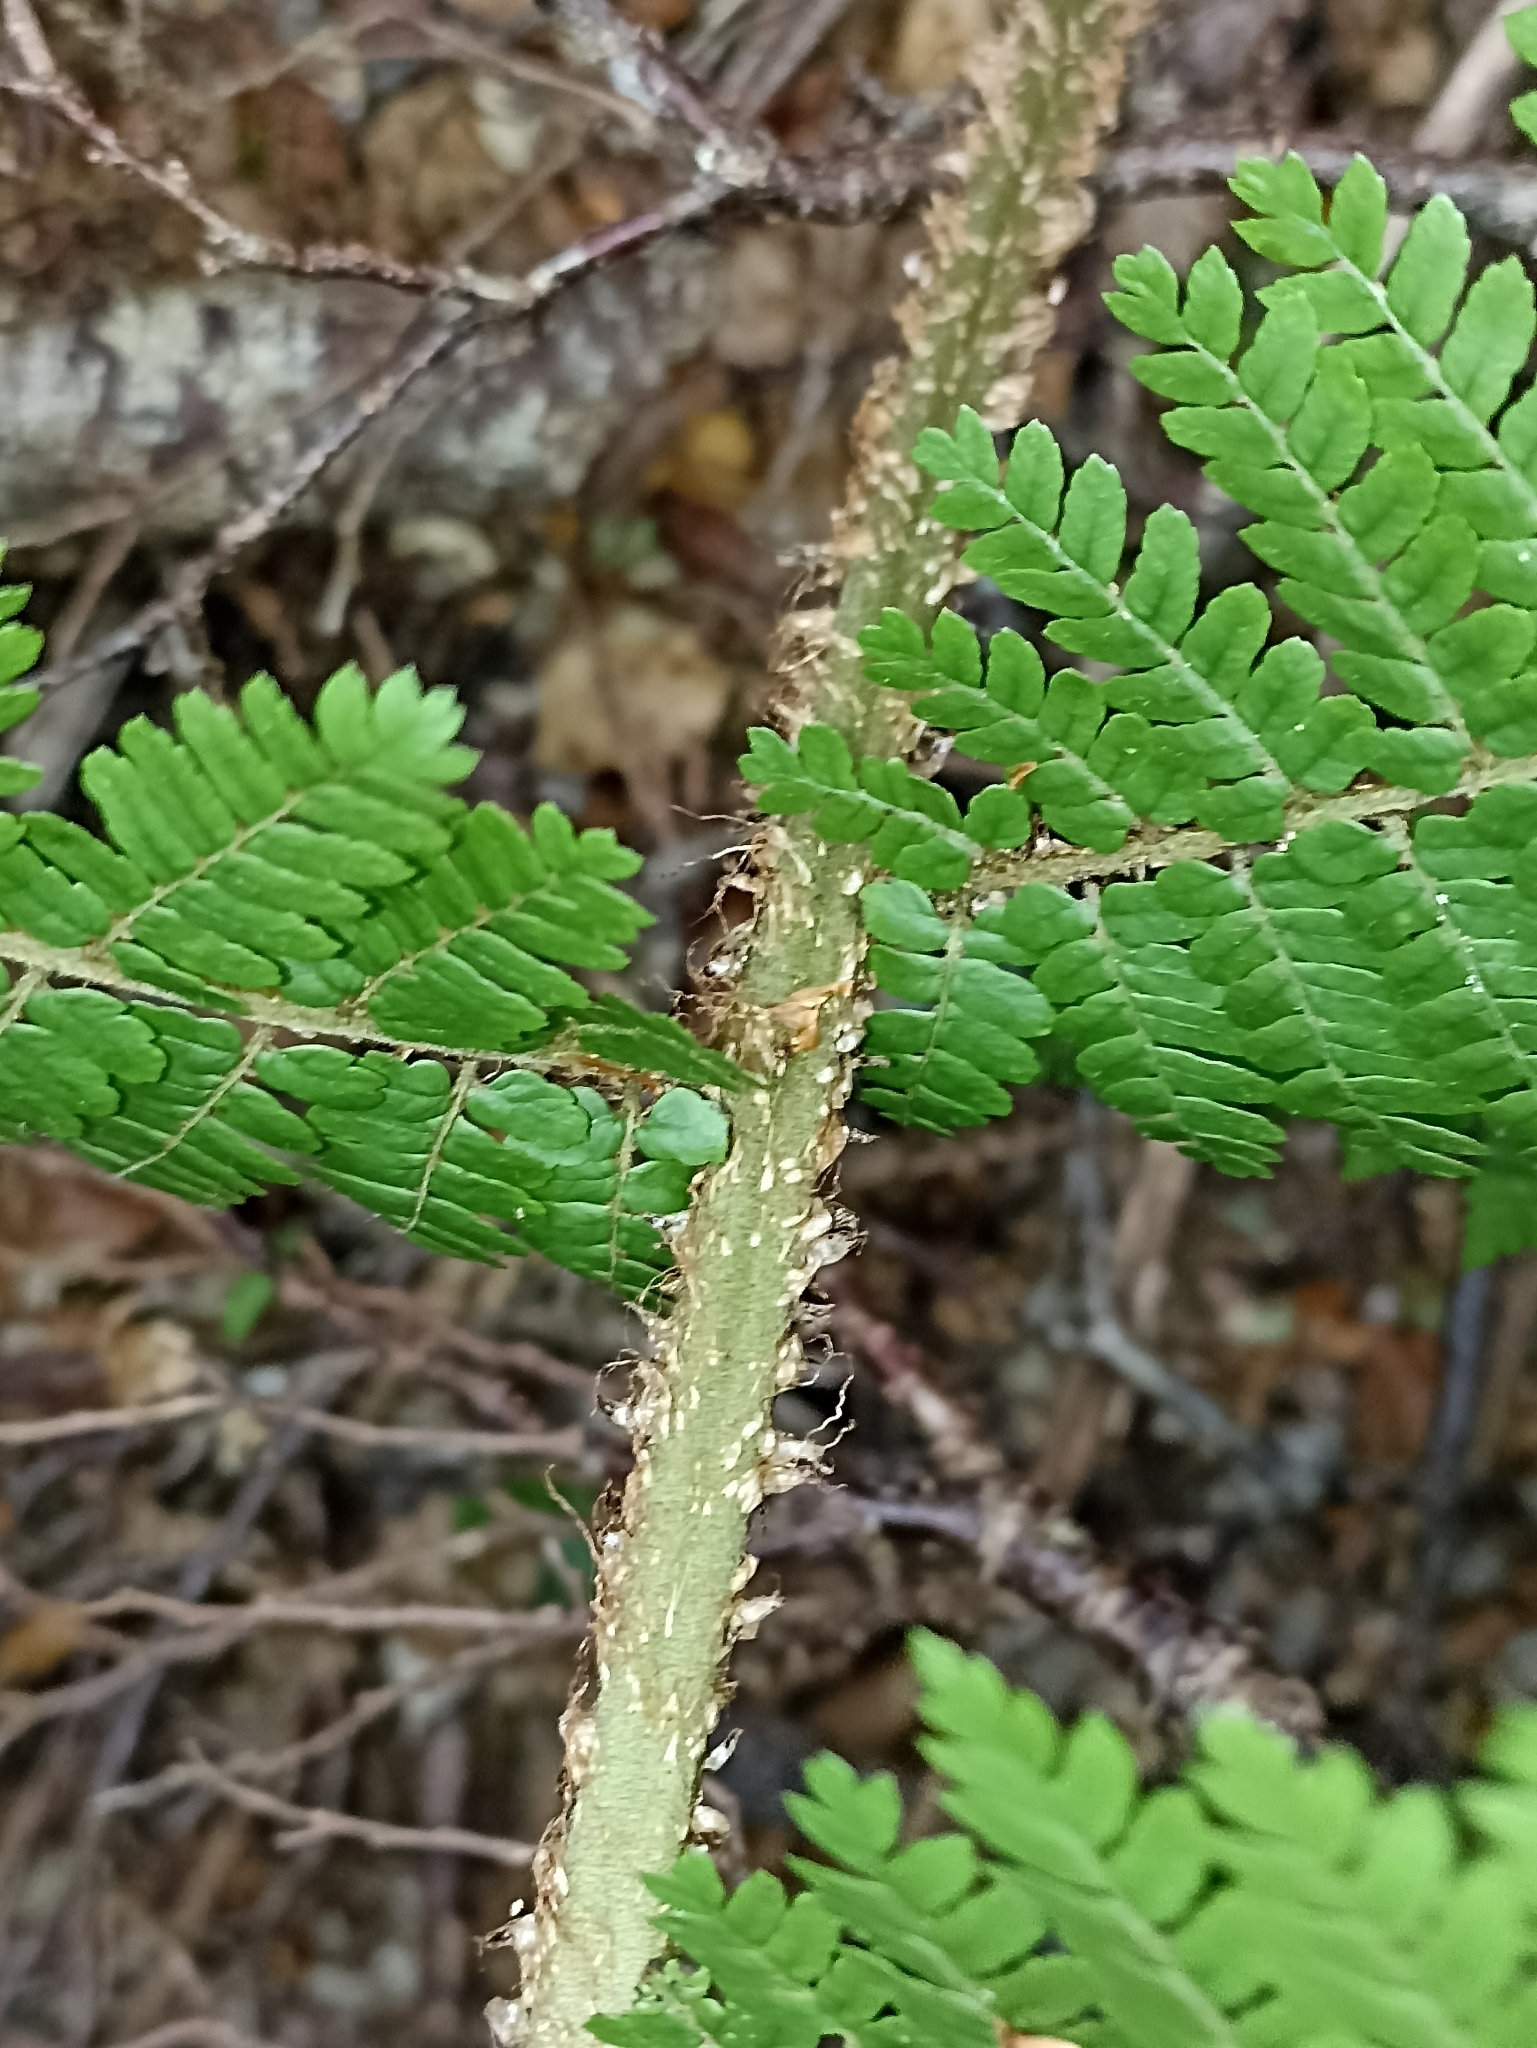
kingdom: Plantae
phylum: Tracheophyta
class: Polypodiopsida
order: Cyatheales
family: Cyatheaceae
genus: Alsophila
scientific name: Alsophila colensoi
